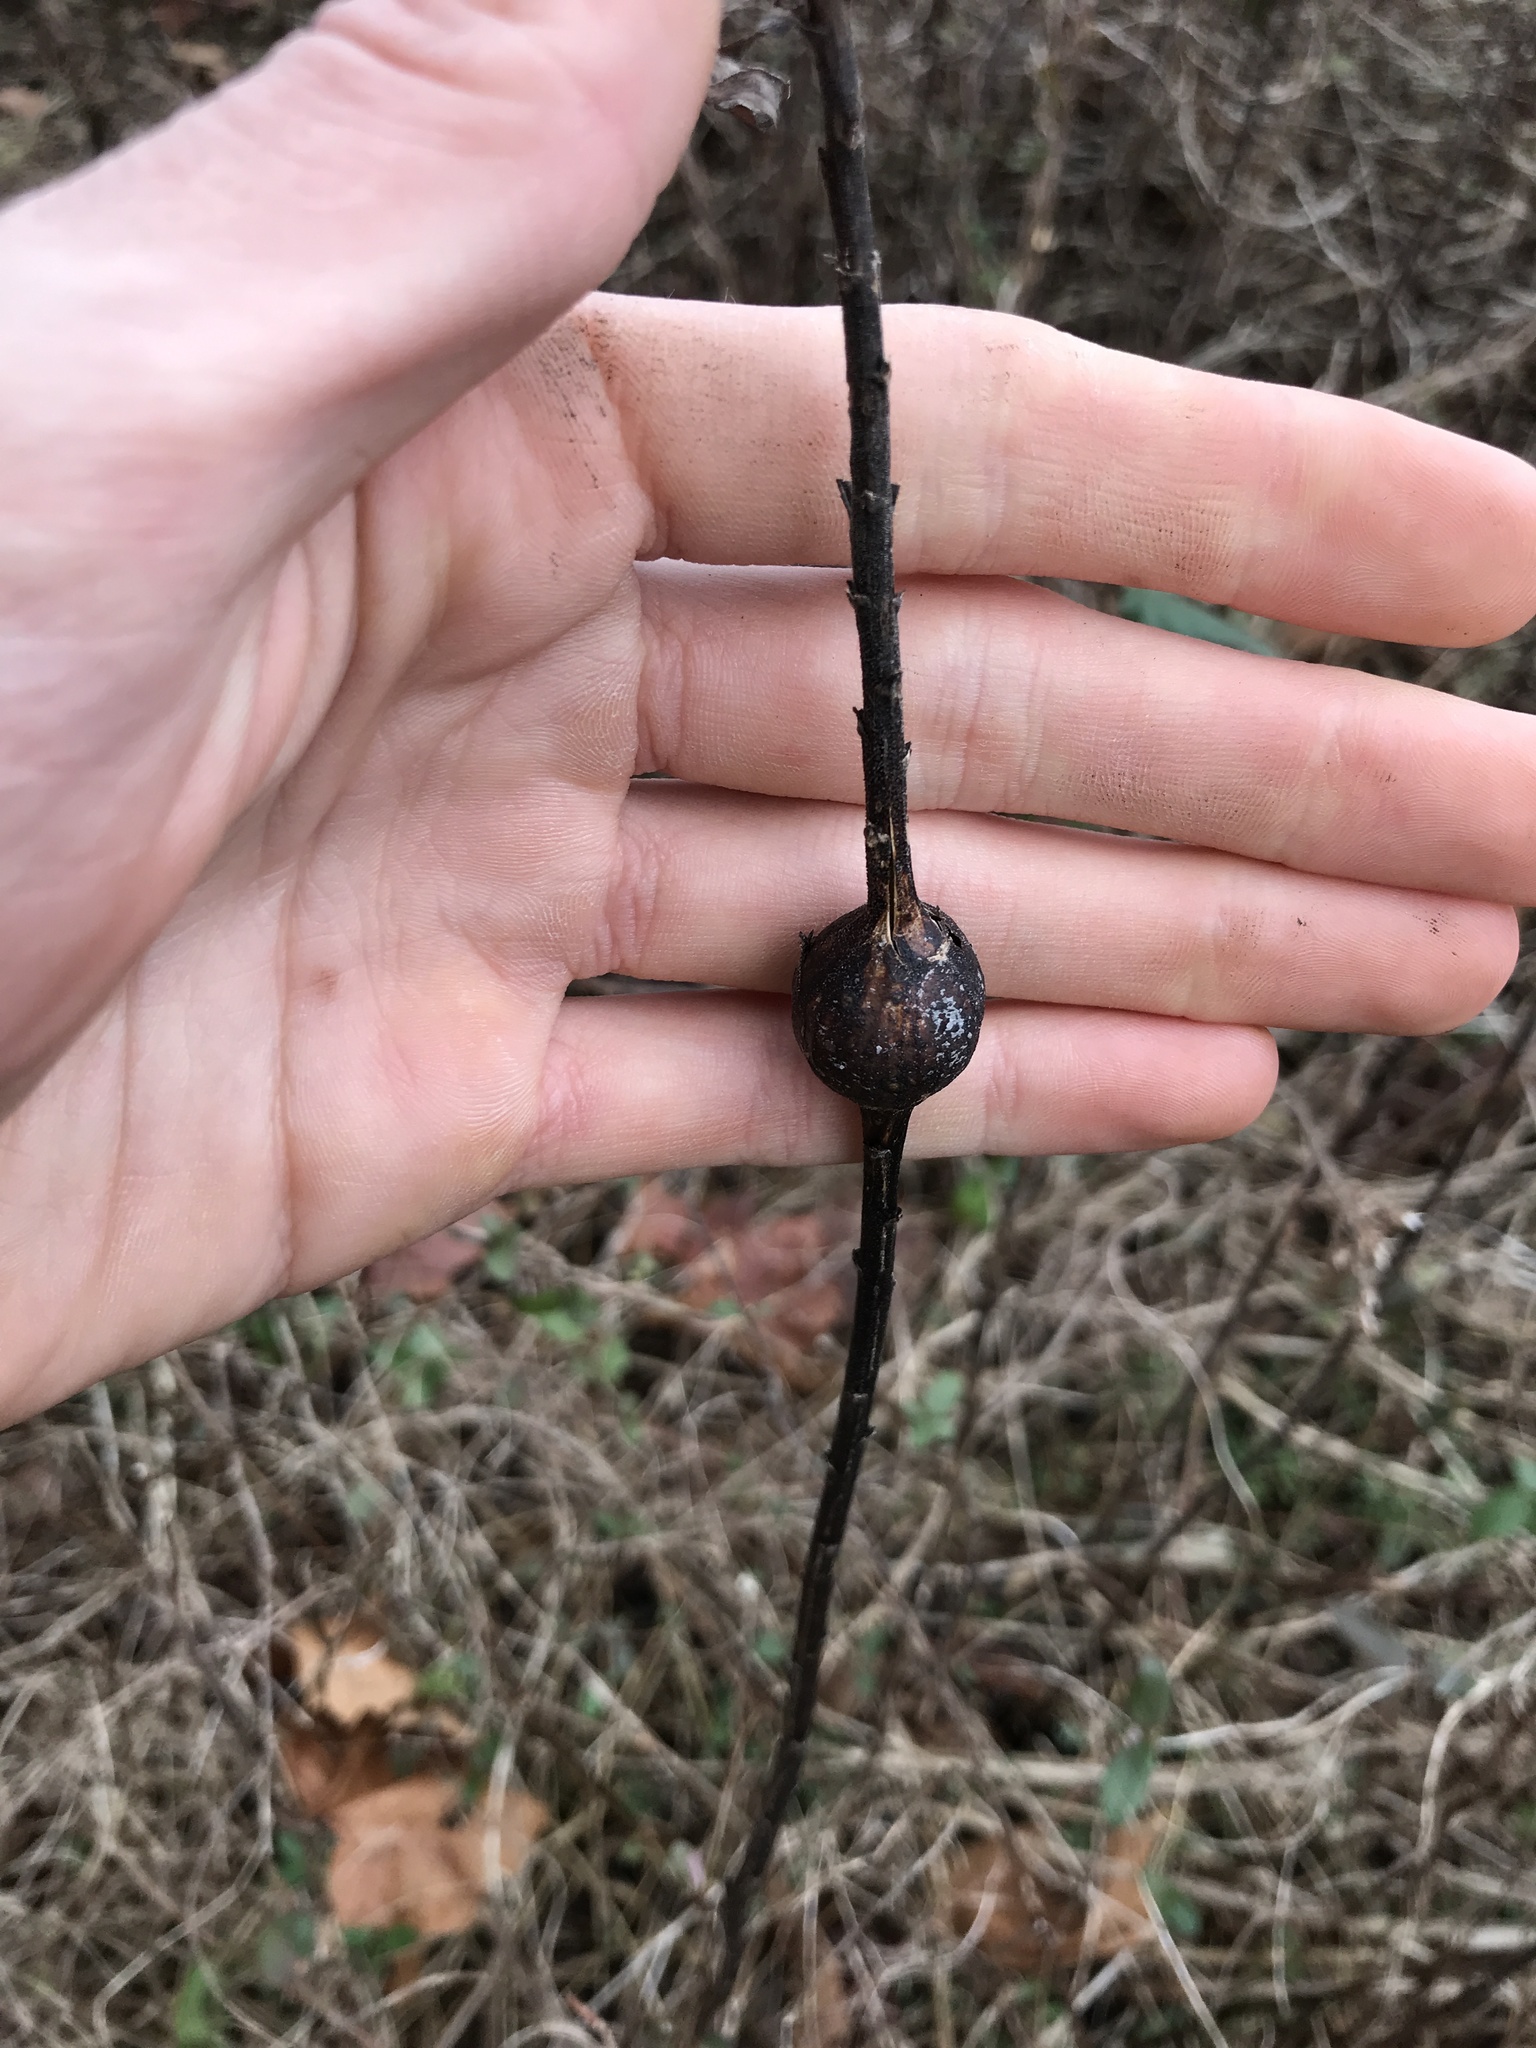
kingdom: Animalia
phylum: Arthropoda
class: Insecta
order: Diptera
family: Tephritidae
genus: Eurosta
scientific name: Eurosta solidaginis
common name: Goldenrod gall fly
